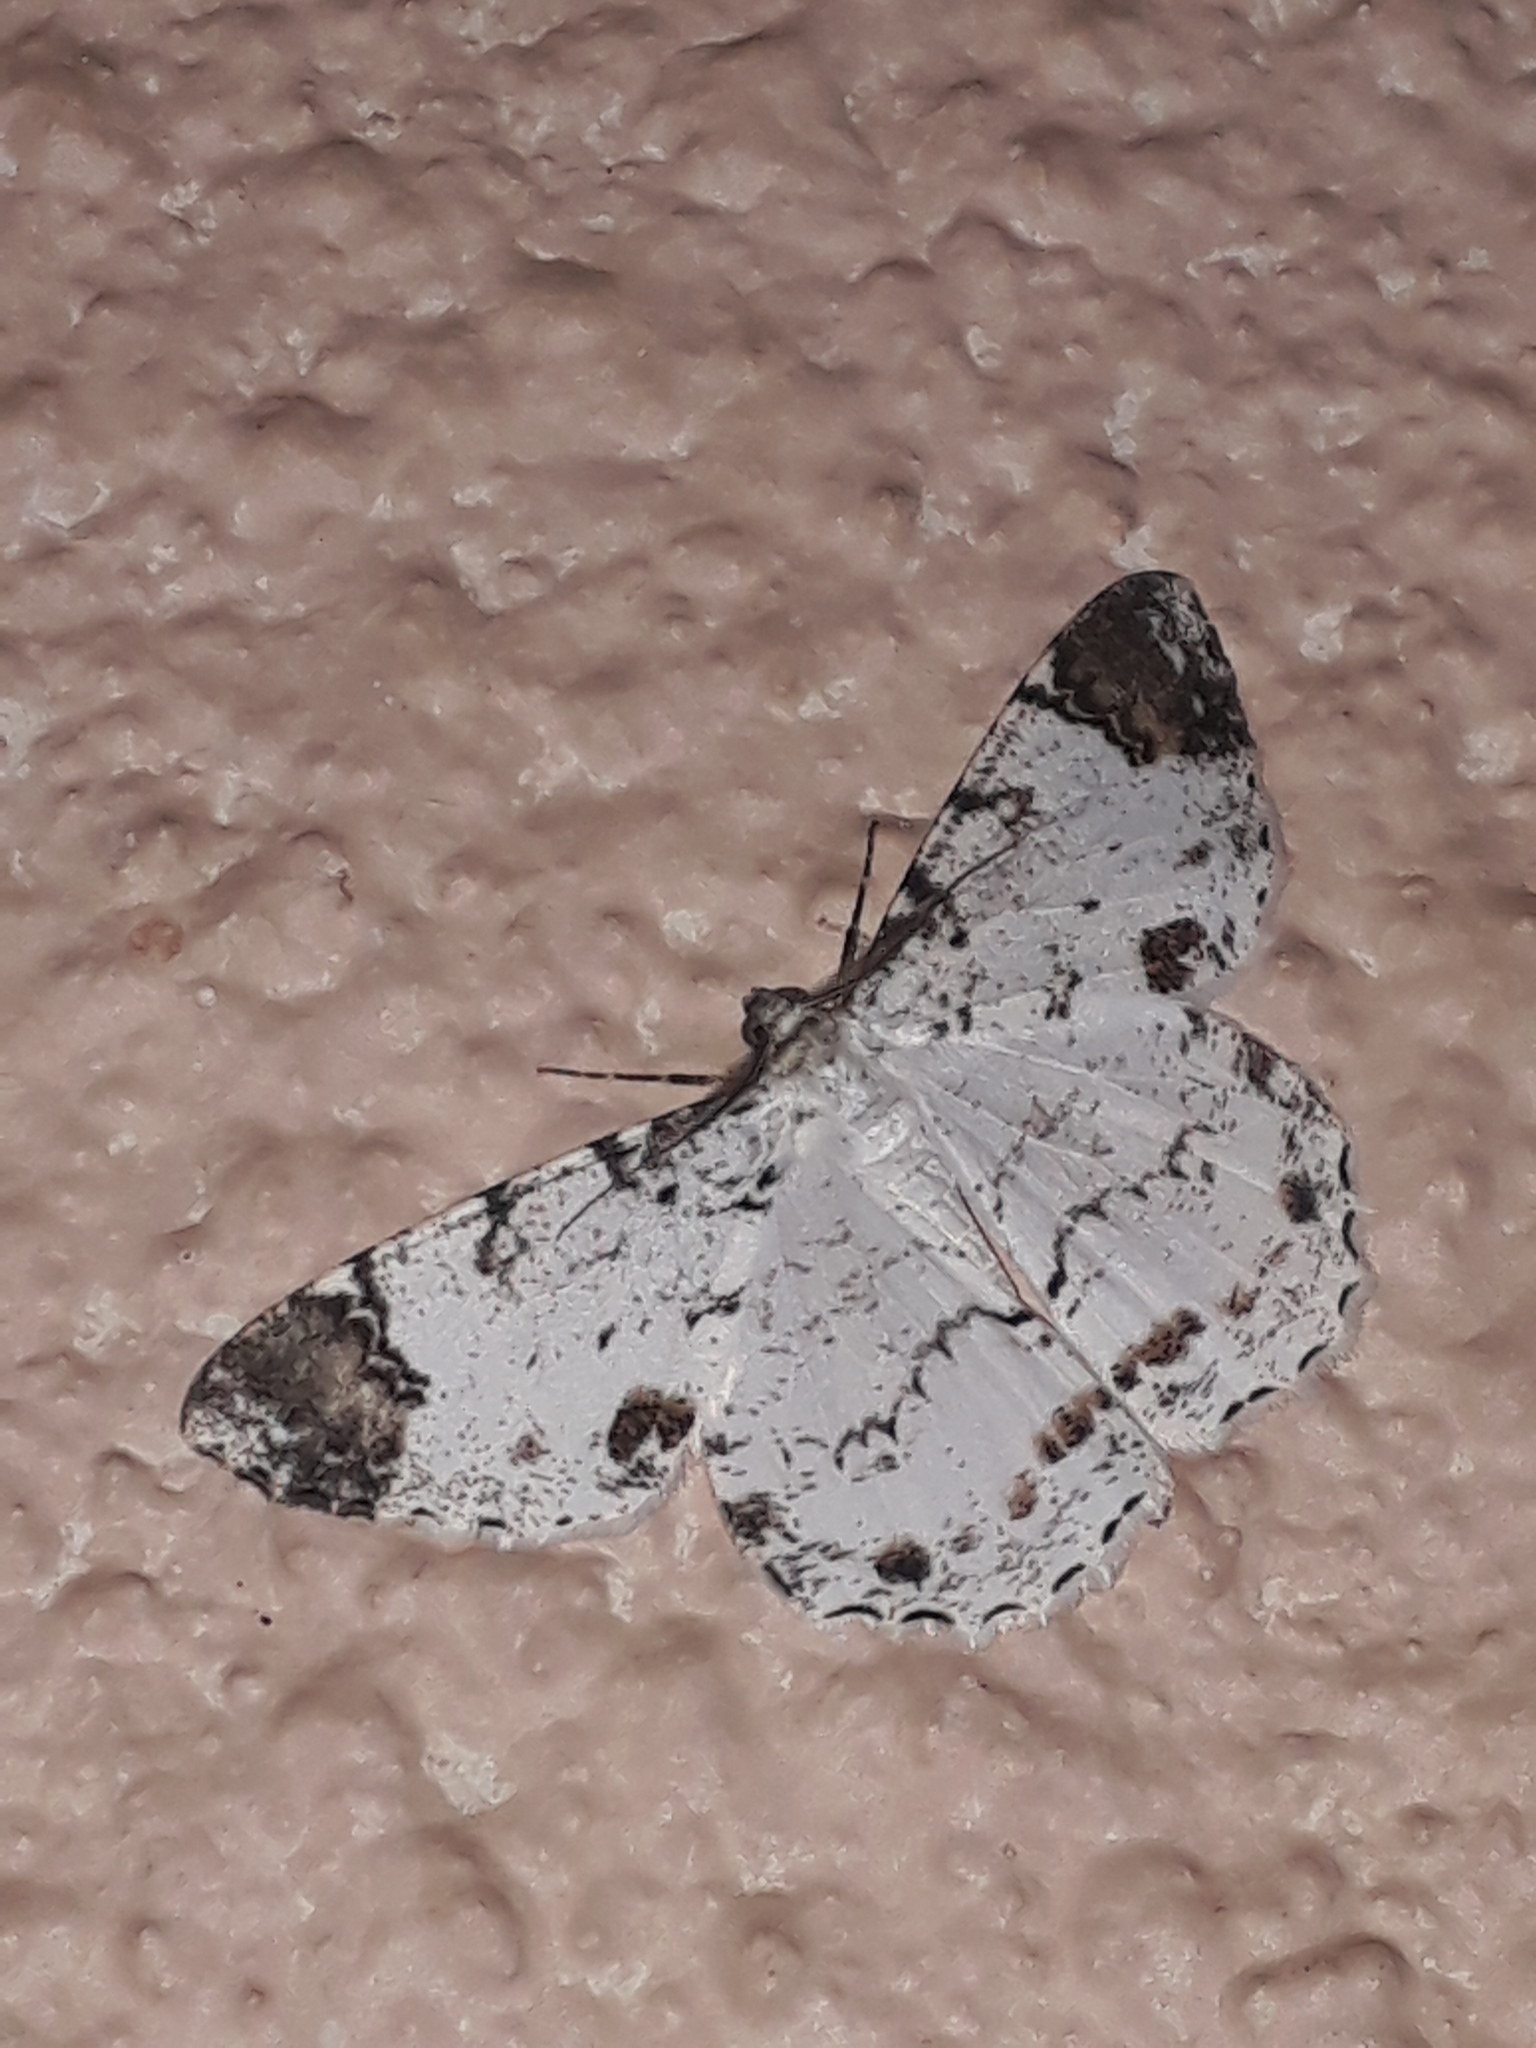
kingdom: Animalia
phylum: Arthropoda
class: Insecta
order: Lepidoptera
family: Geometridae
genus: Epimecis
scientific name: Epimecis puellaria
